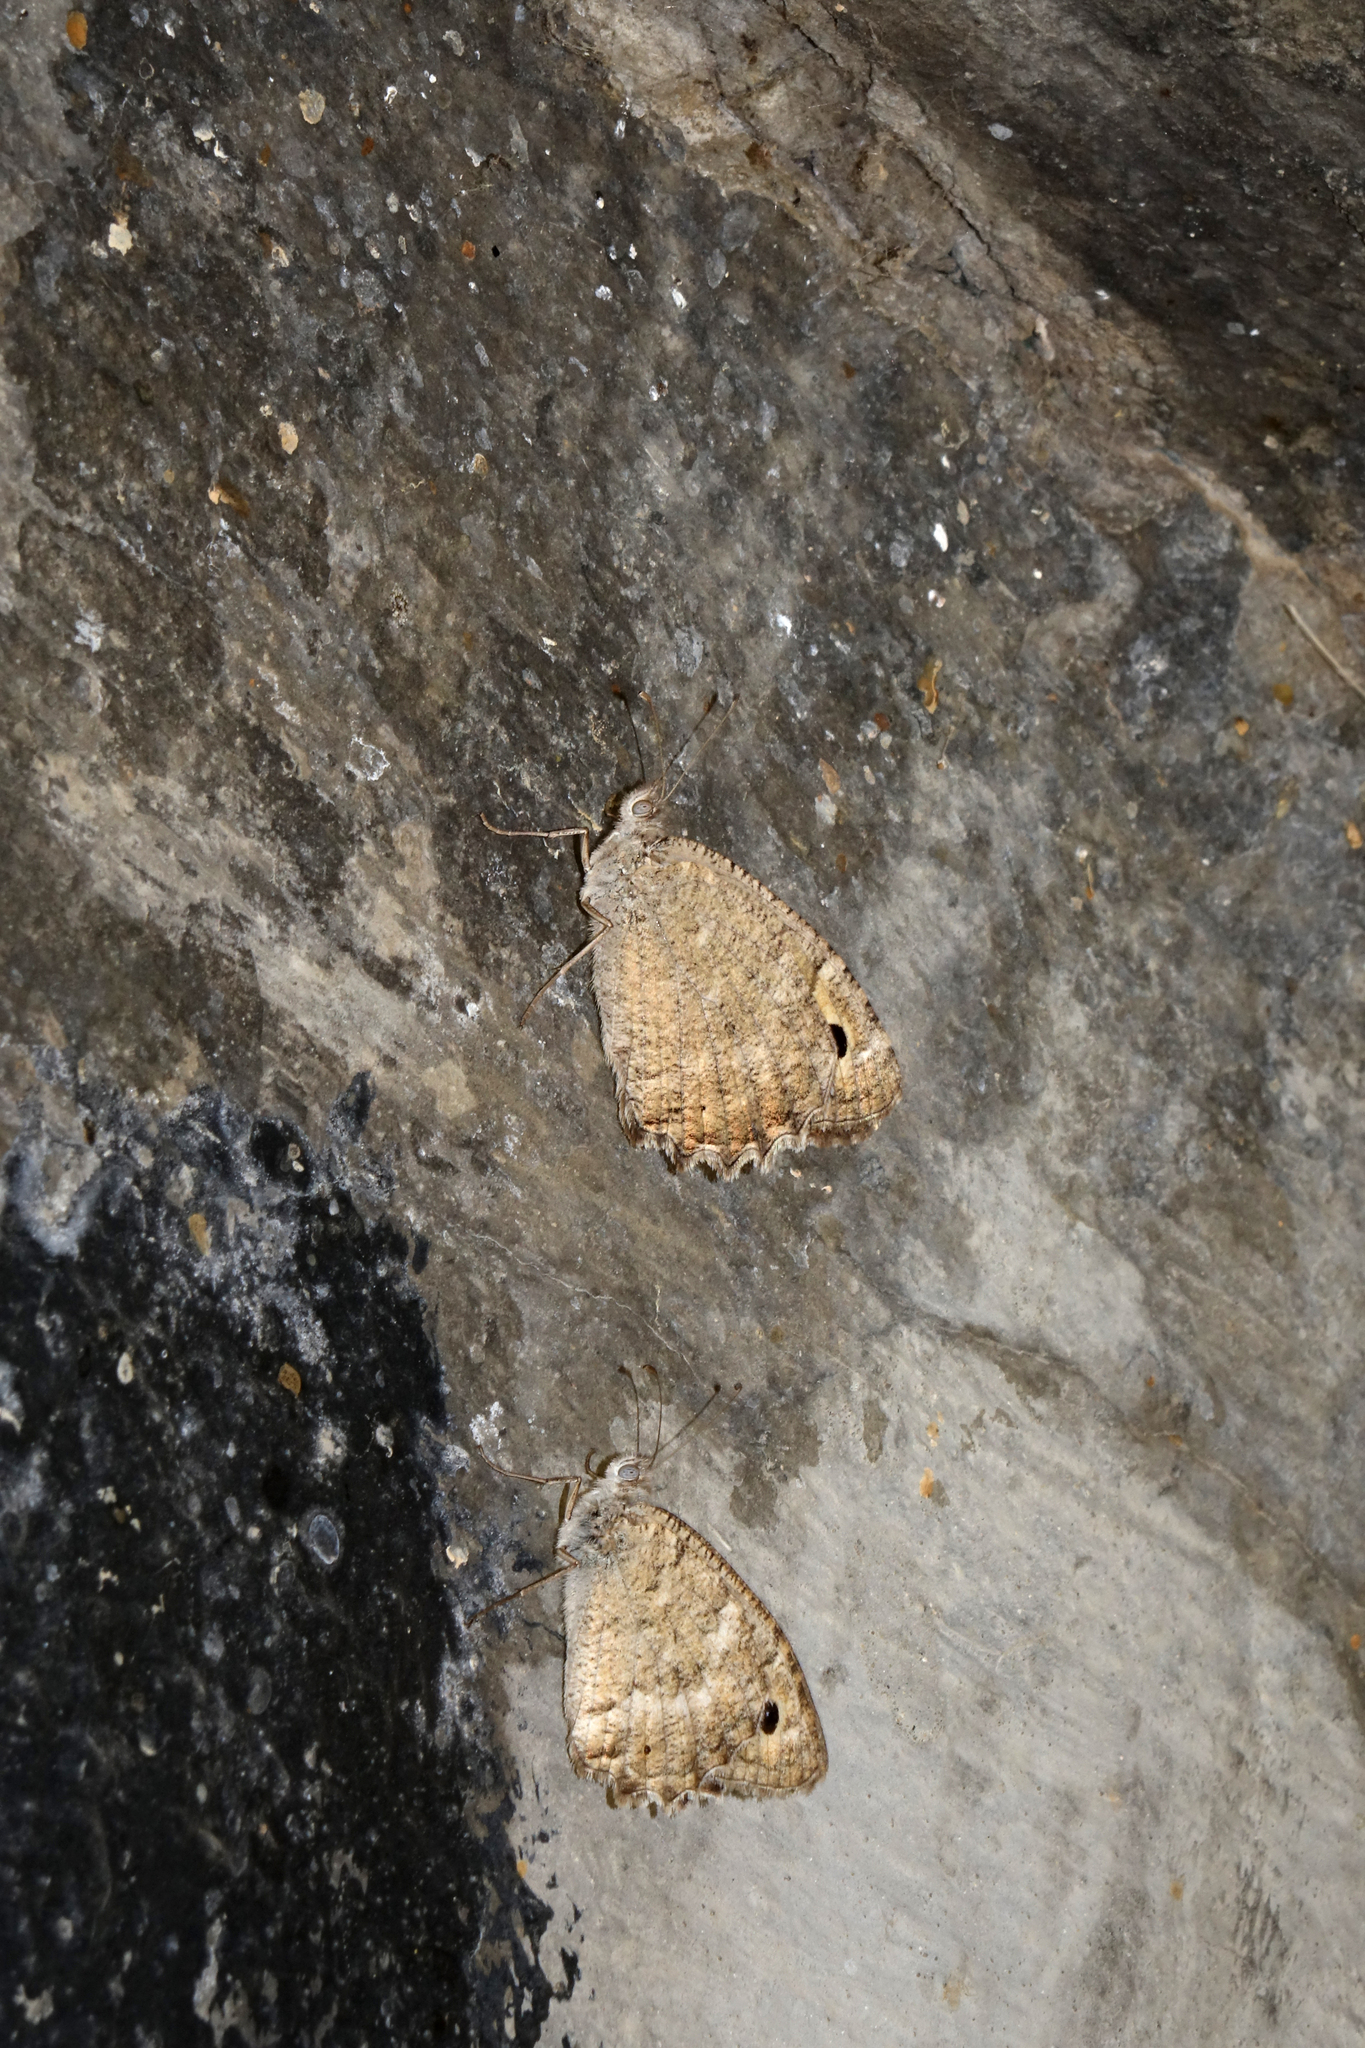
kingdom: Animalia
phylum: Arthropoda
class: Insecta
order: Lepidoptera
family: Nymphalidae
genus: Pseudochazara
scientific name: Pseudochazara pelopea
